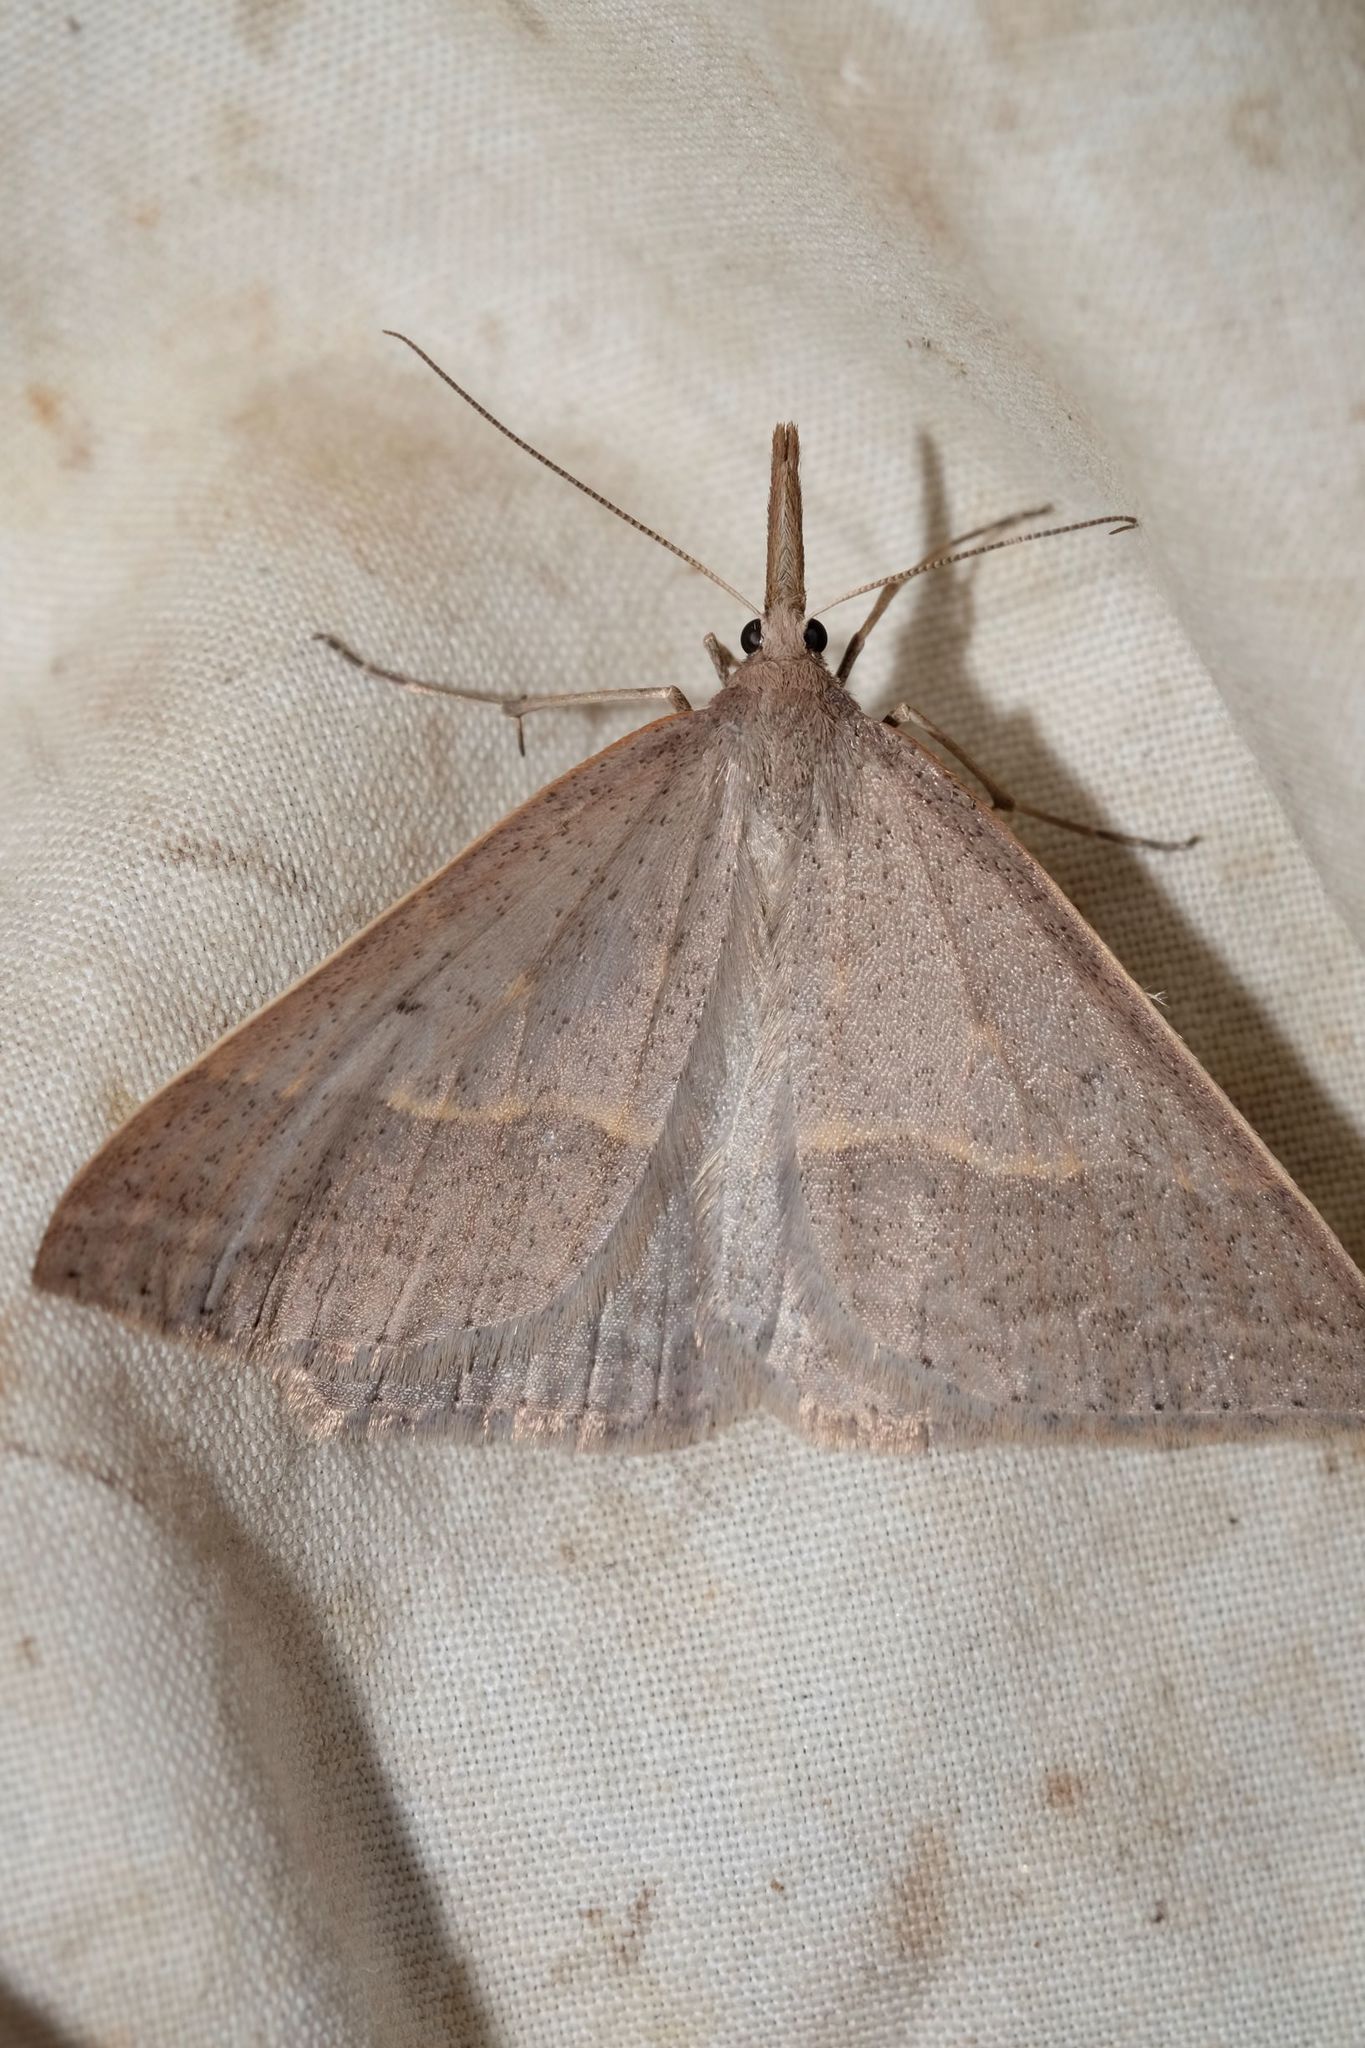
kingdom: Animalia
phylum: Arthropoda
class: Insecta
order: Lepidoptera
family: Geometridae
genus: Epidesmia
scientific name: Epidesmia hypenaria
